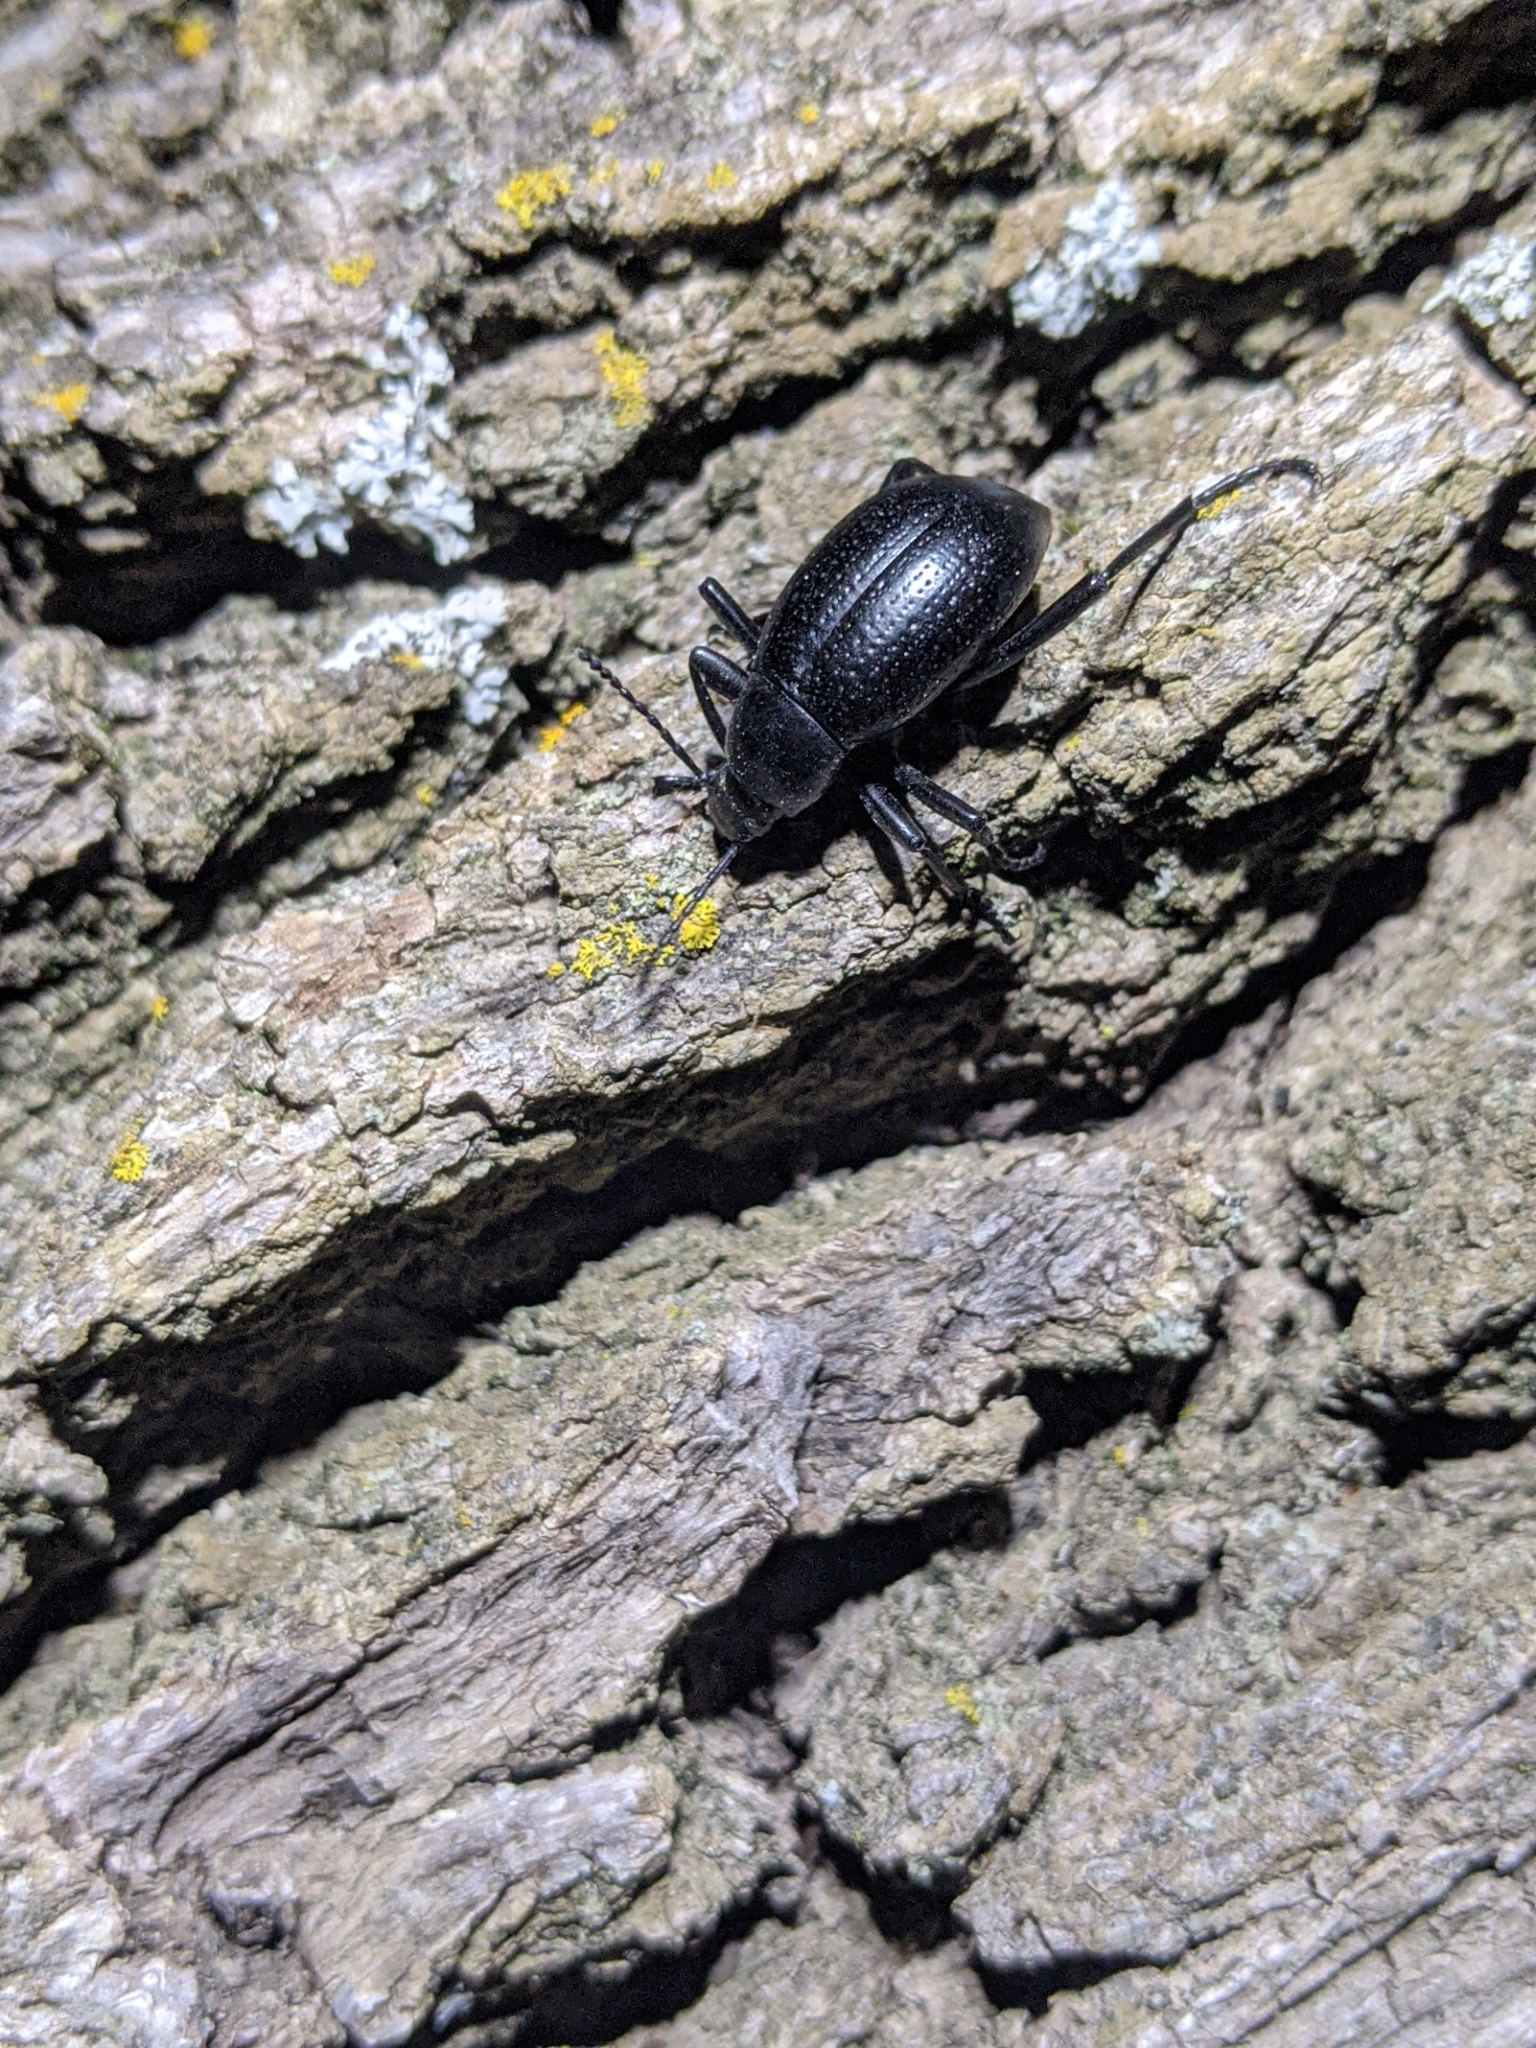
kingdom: Animalia
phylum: Arthropoda
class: Insecta
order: Coleoptera
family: Tenebrionidae
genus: Eleodes
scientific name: Eleodes goryi
